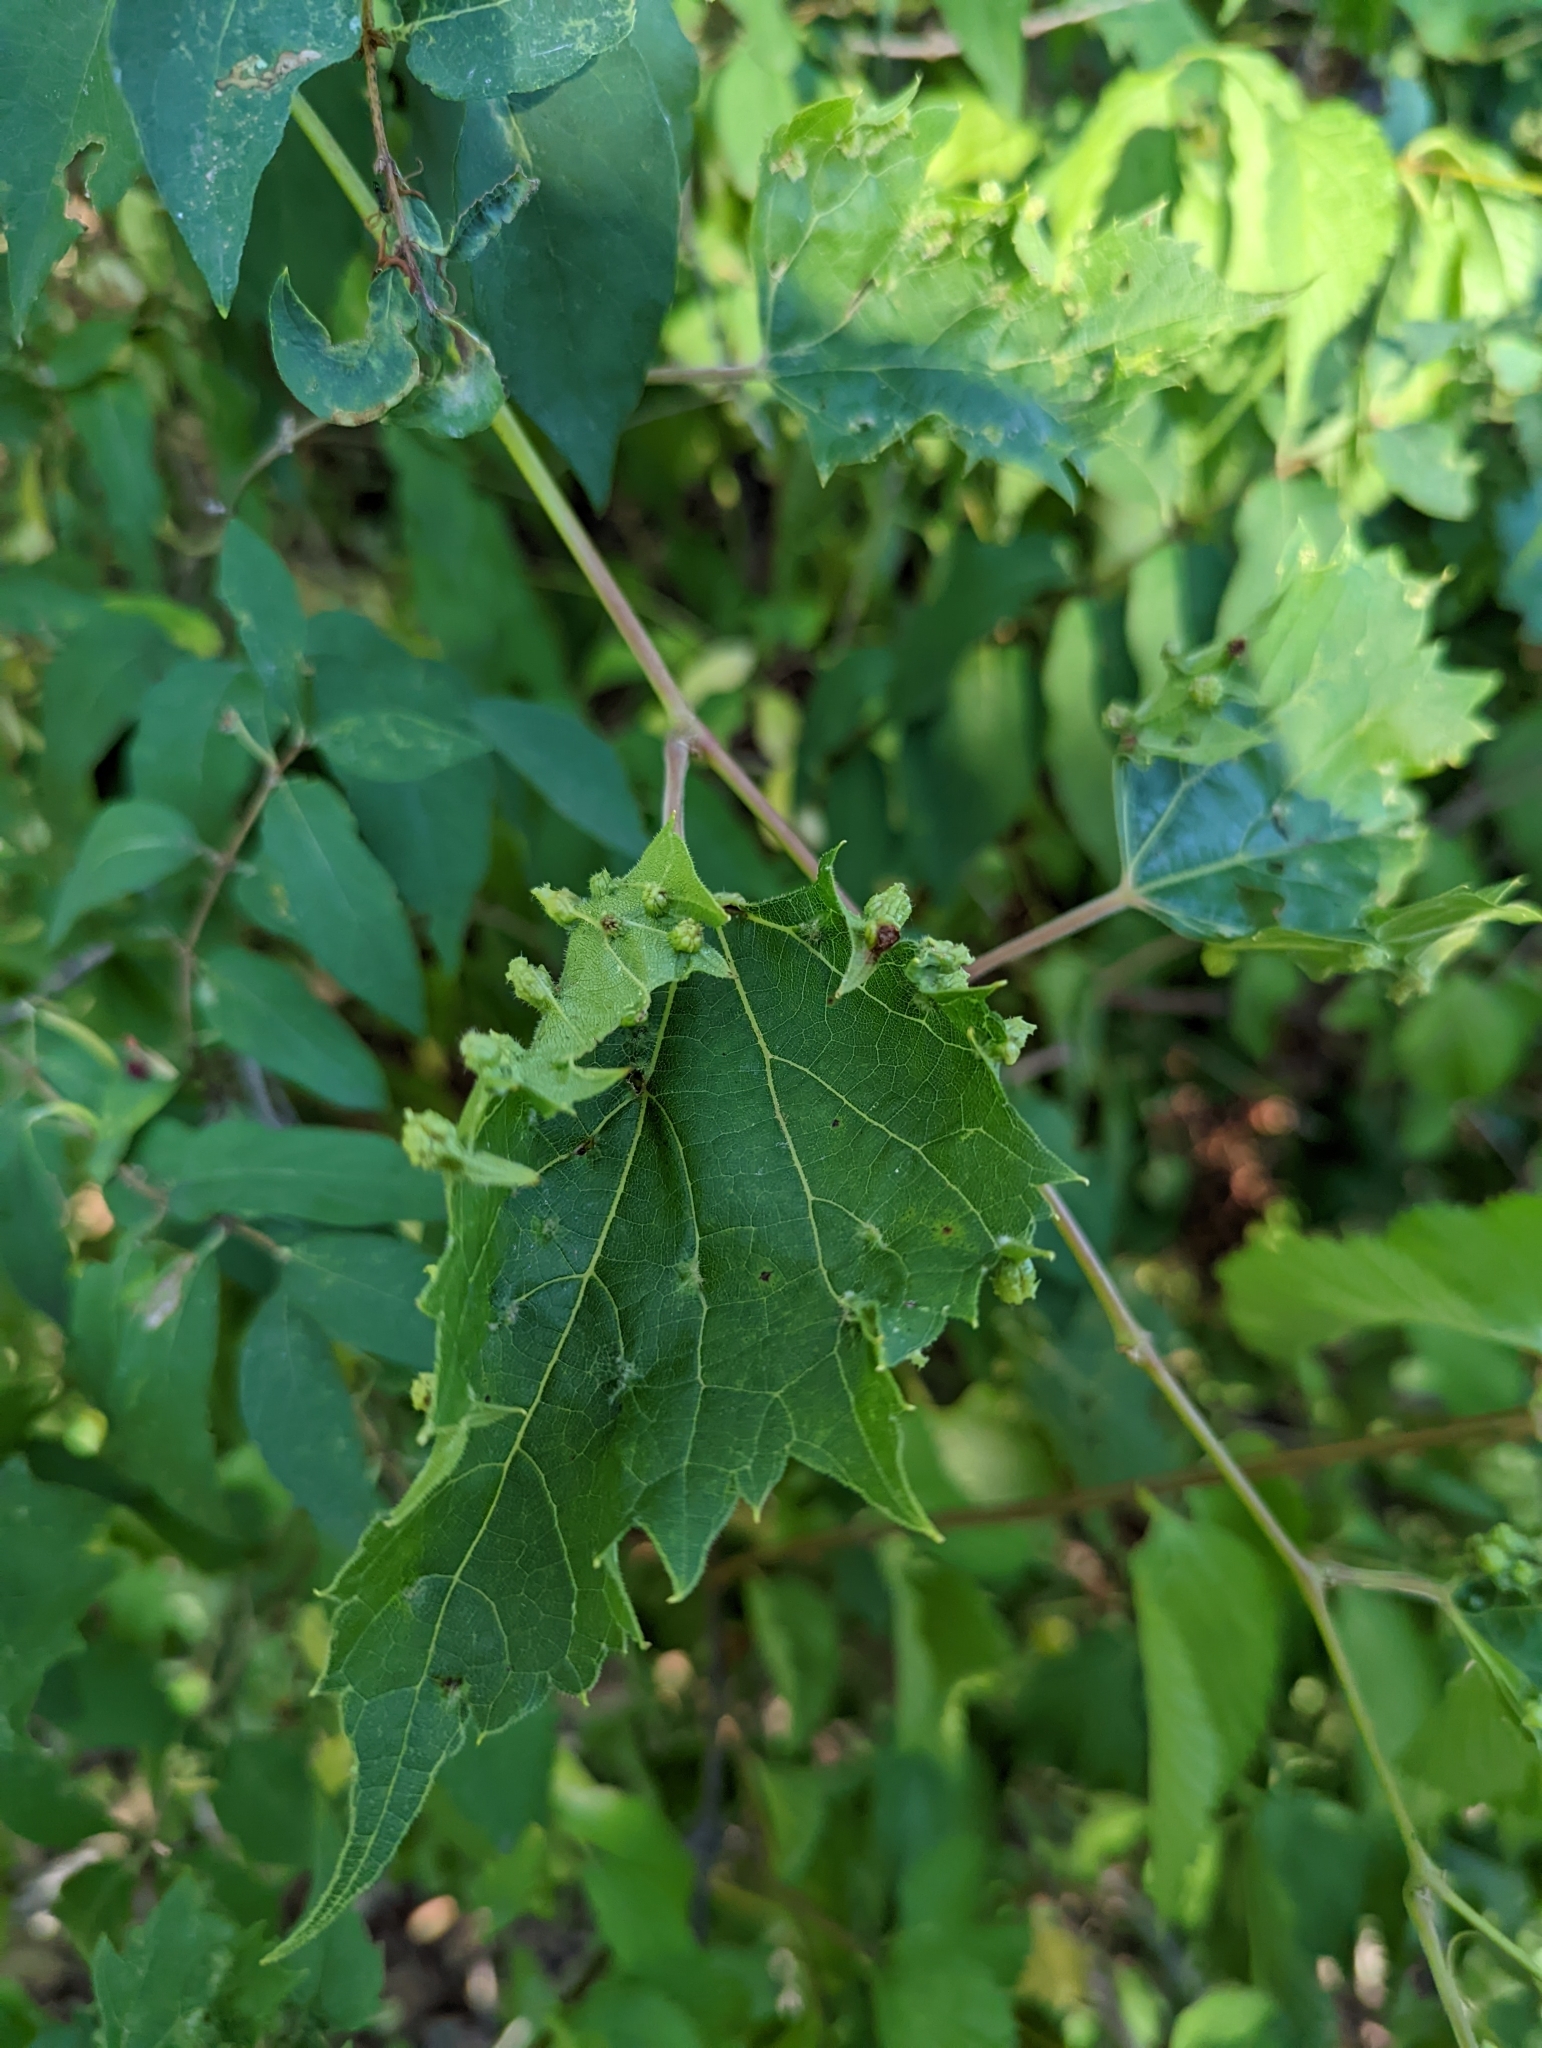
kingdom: Animalia
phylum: Arthropoda
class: Insecta
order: Hemiptera
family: Phylloxeridae
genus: Daktulosphaira
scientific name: Daktulosphaira vitifoliae
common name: Grape phylloxera
